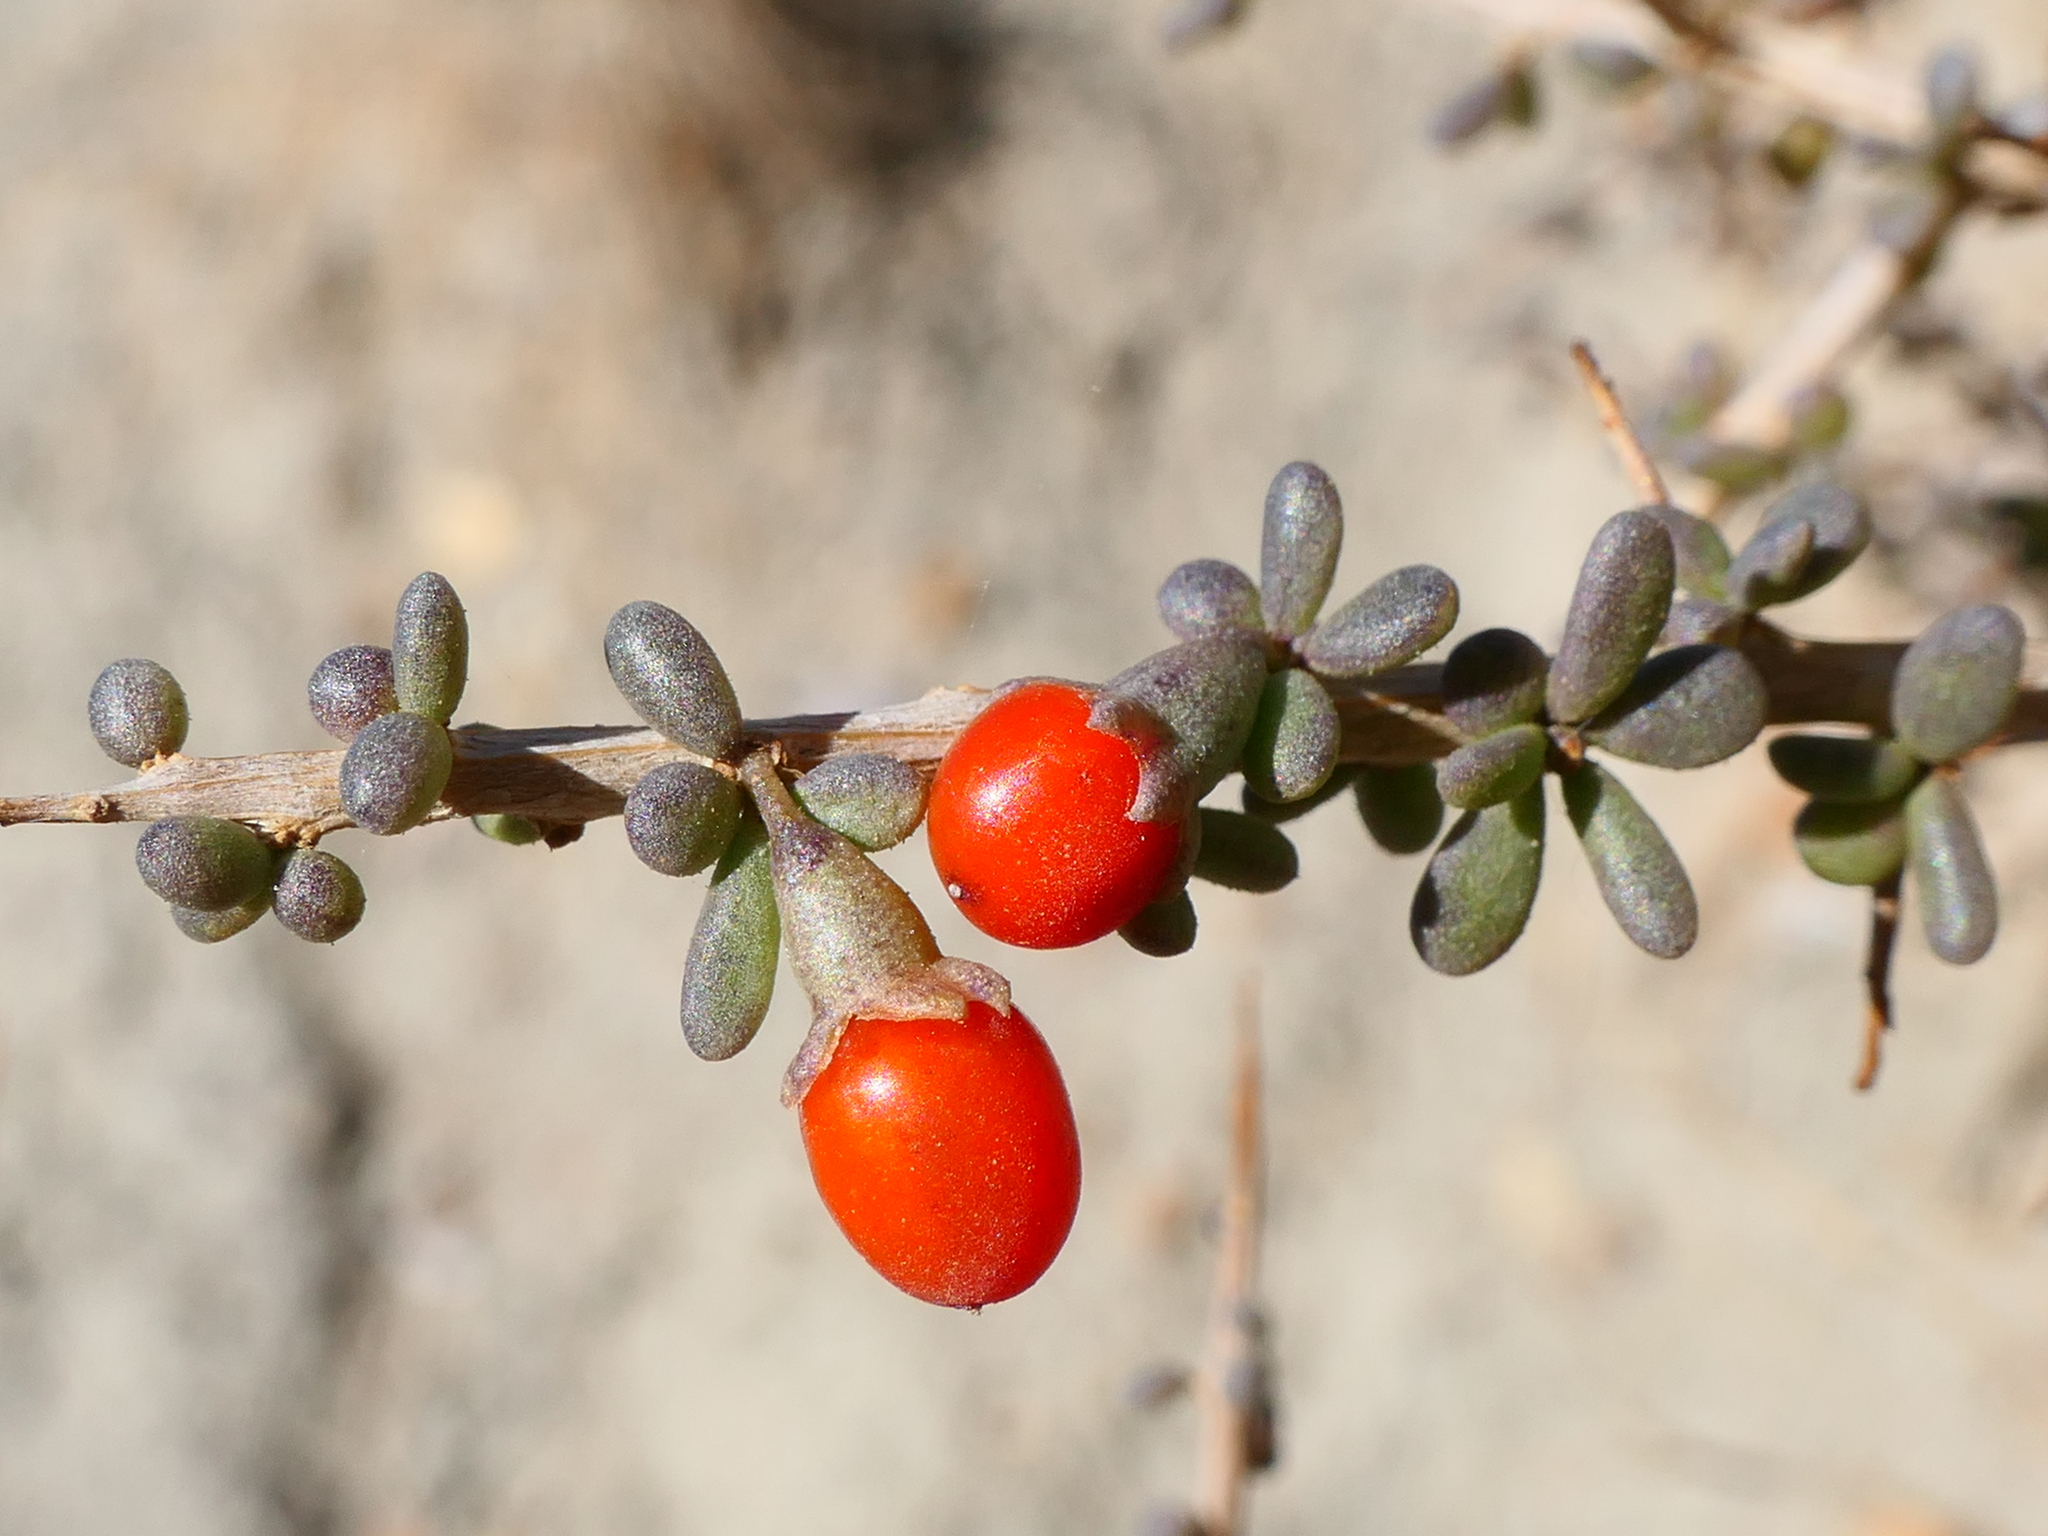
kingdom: Plantae
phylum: Tracheophyta
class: Magnoliopsida
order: Solanales
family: Solanaceae
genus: Lycium
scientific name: Lycium intricatum
